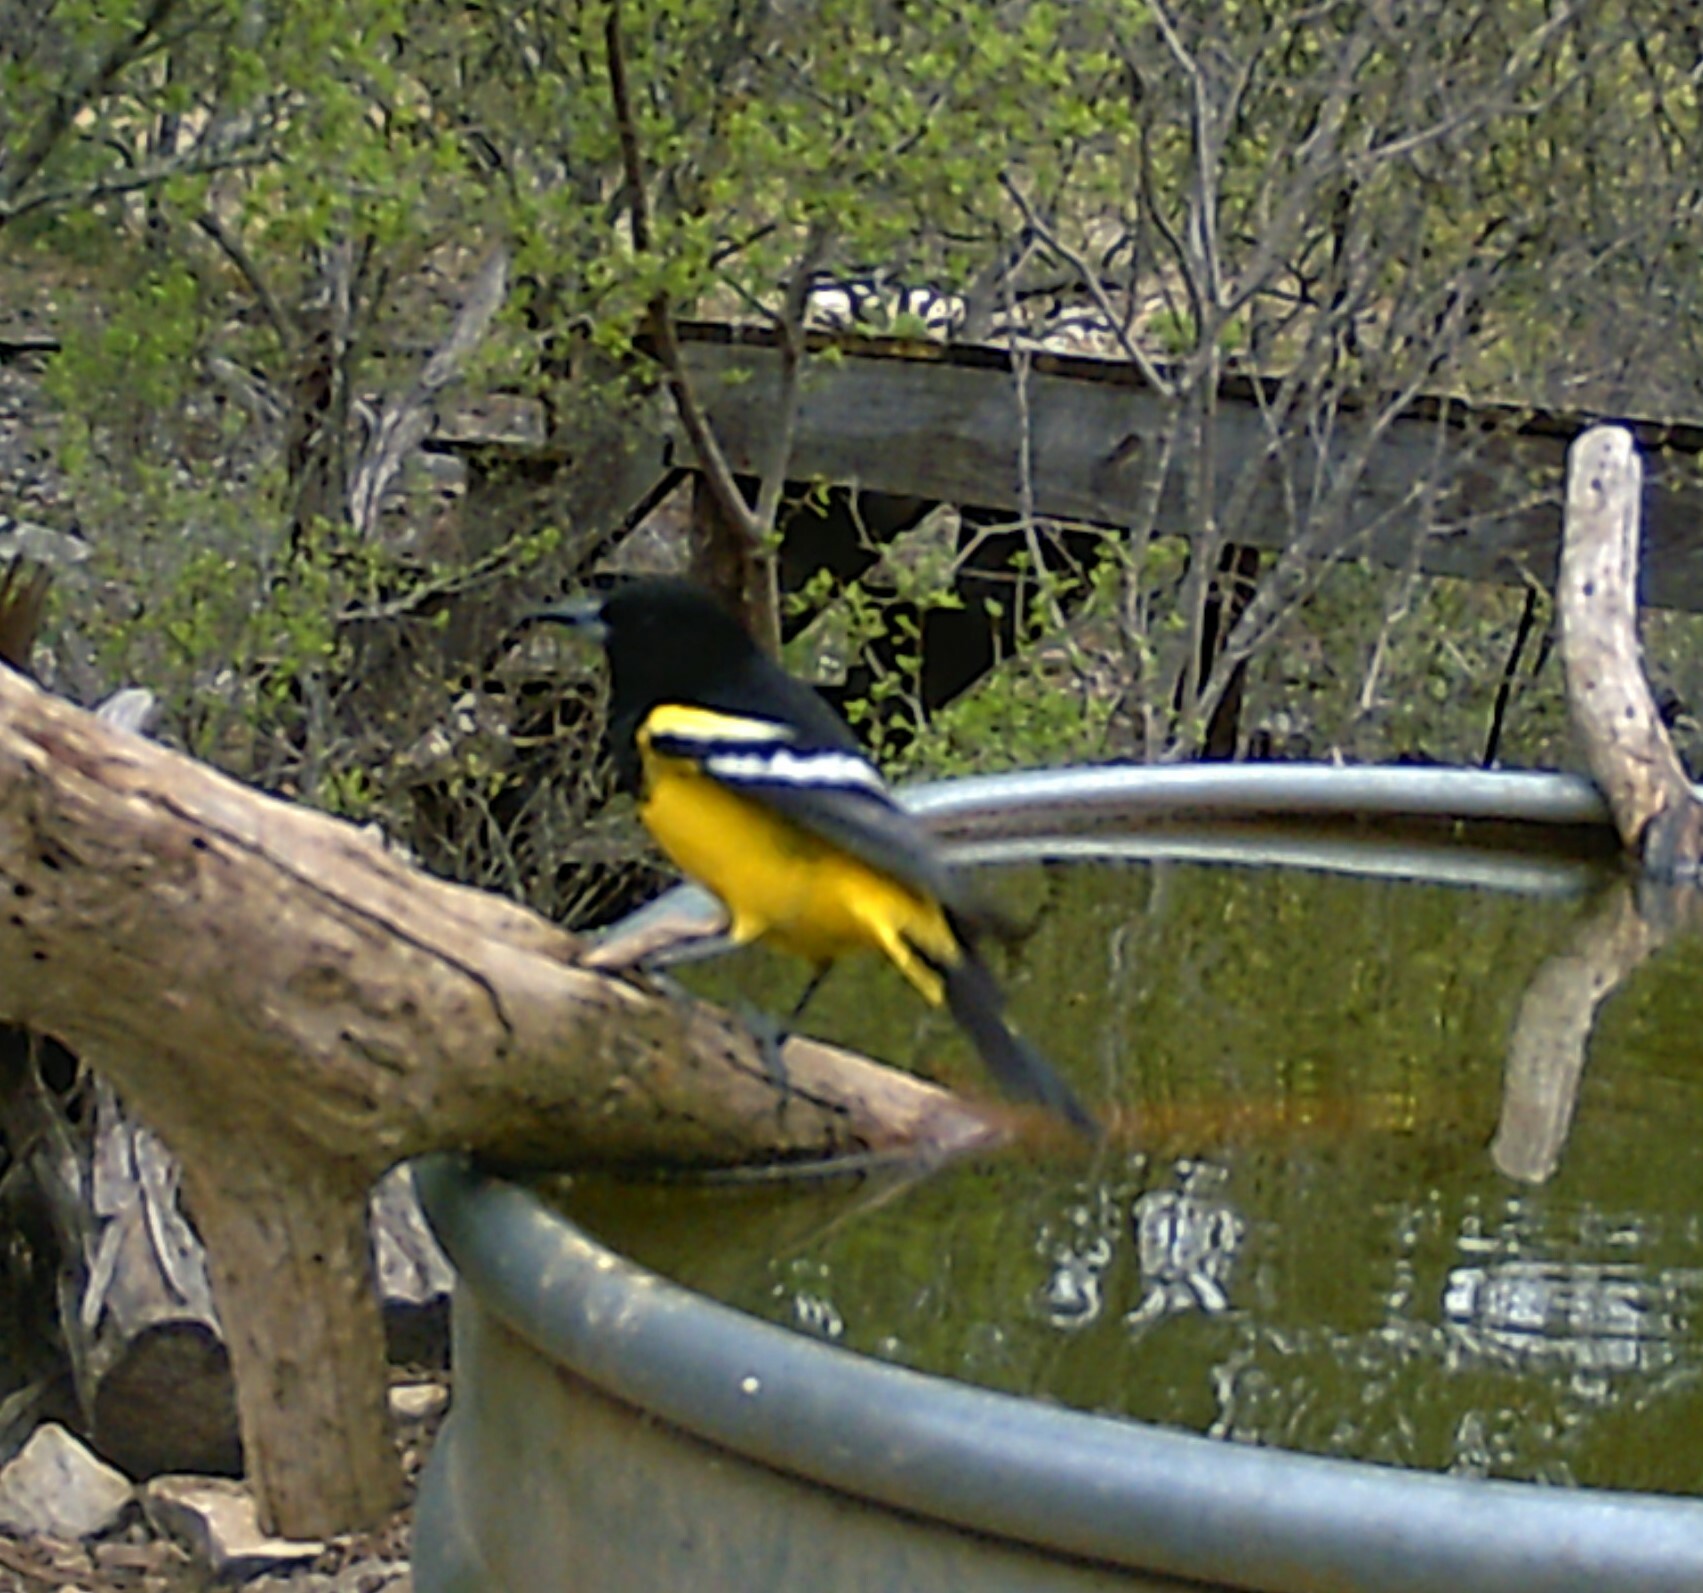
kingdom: Animalia
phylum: Chordata
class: Aves
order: Passeriformes
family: Icteridae
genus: Icterus
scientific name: Icterus parisorum
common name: Scott's oriole
